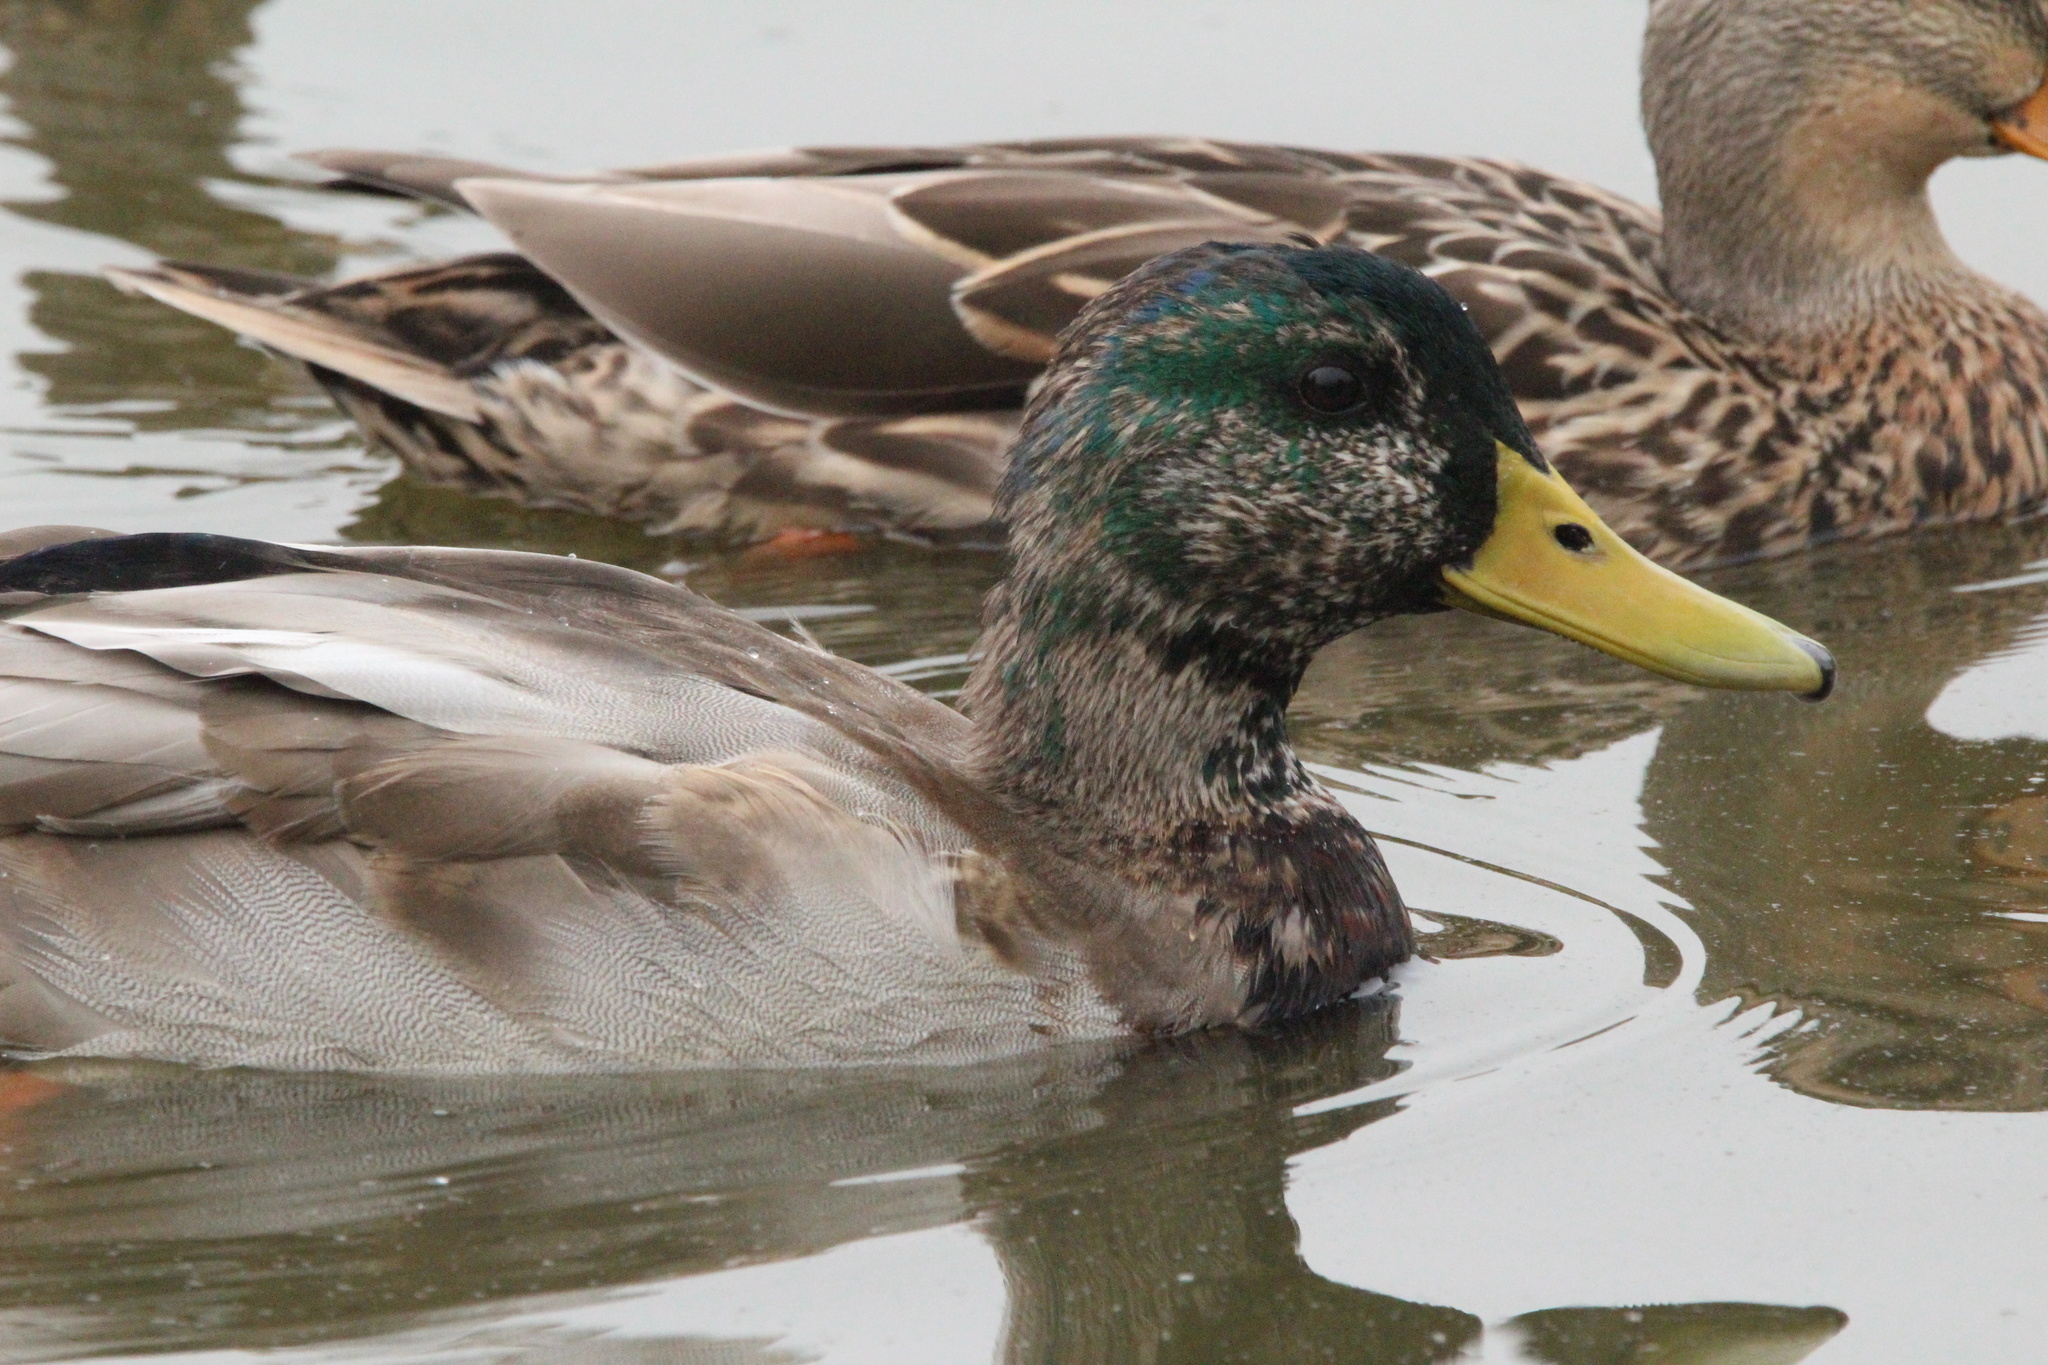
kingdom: Animalia
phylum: Chordata
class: Aves
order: Anseriformes
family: Anatidae
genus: Anas
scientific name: Anas platyrhynchos
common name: Mallard
